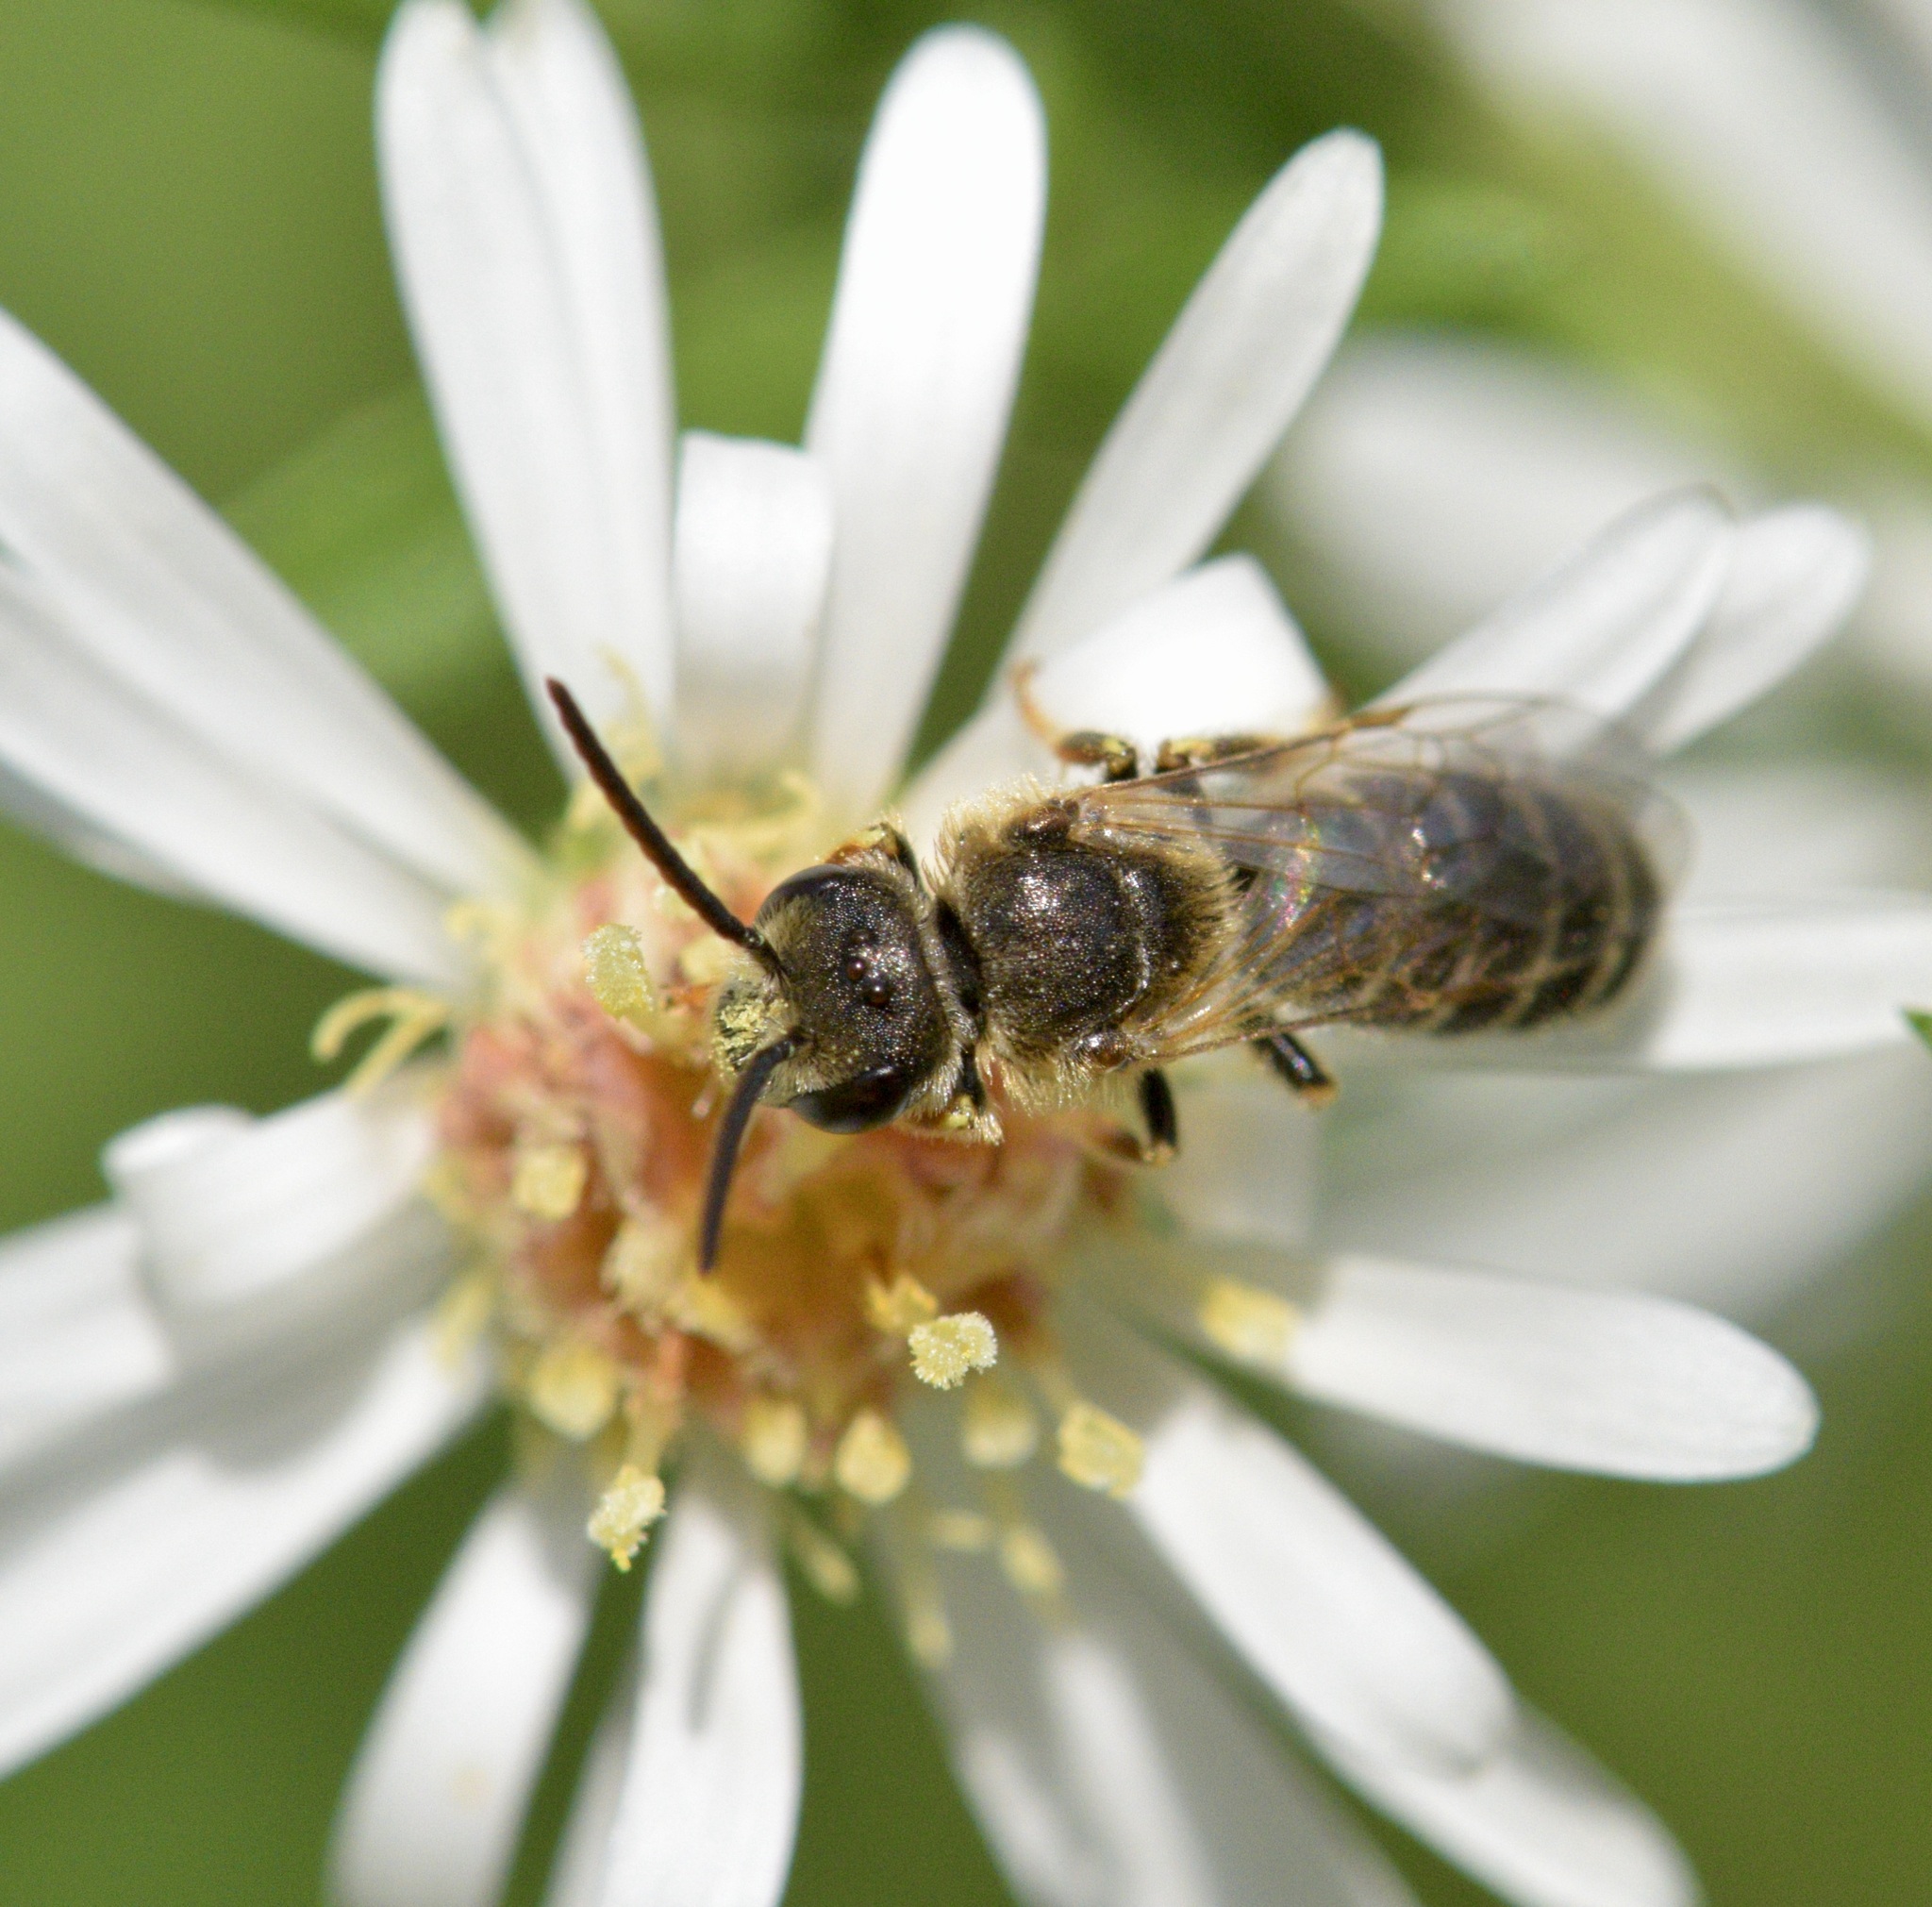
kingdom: Animalia
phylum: Arthropoda
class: Insecta
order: Hymenoptera
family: Halictidae
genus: Halictus
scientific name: Halictus ligatus
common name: Ligated furrow bee
